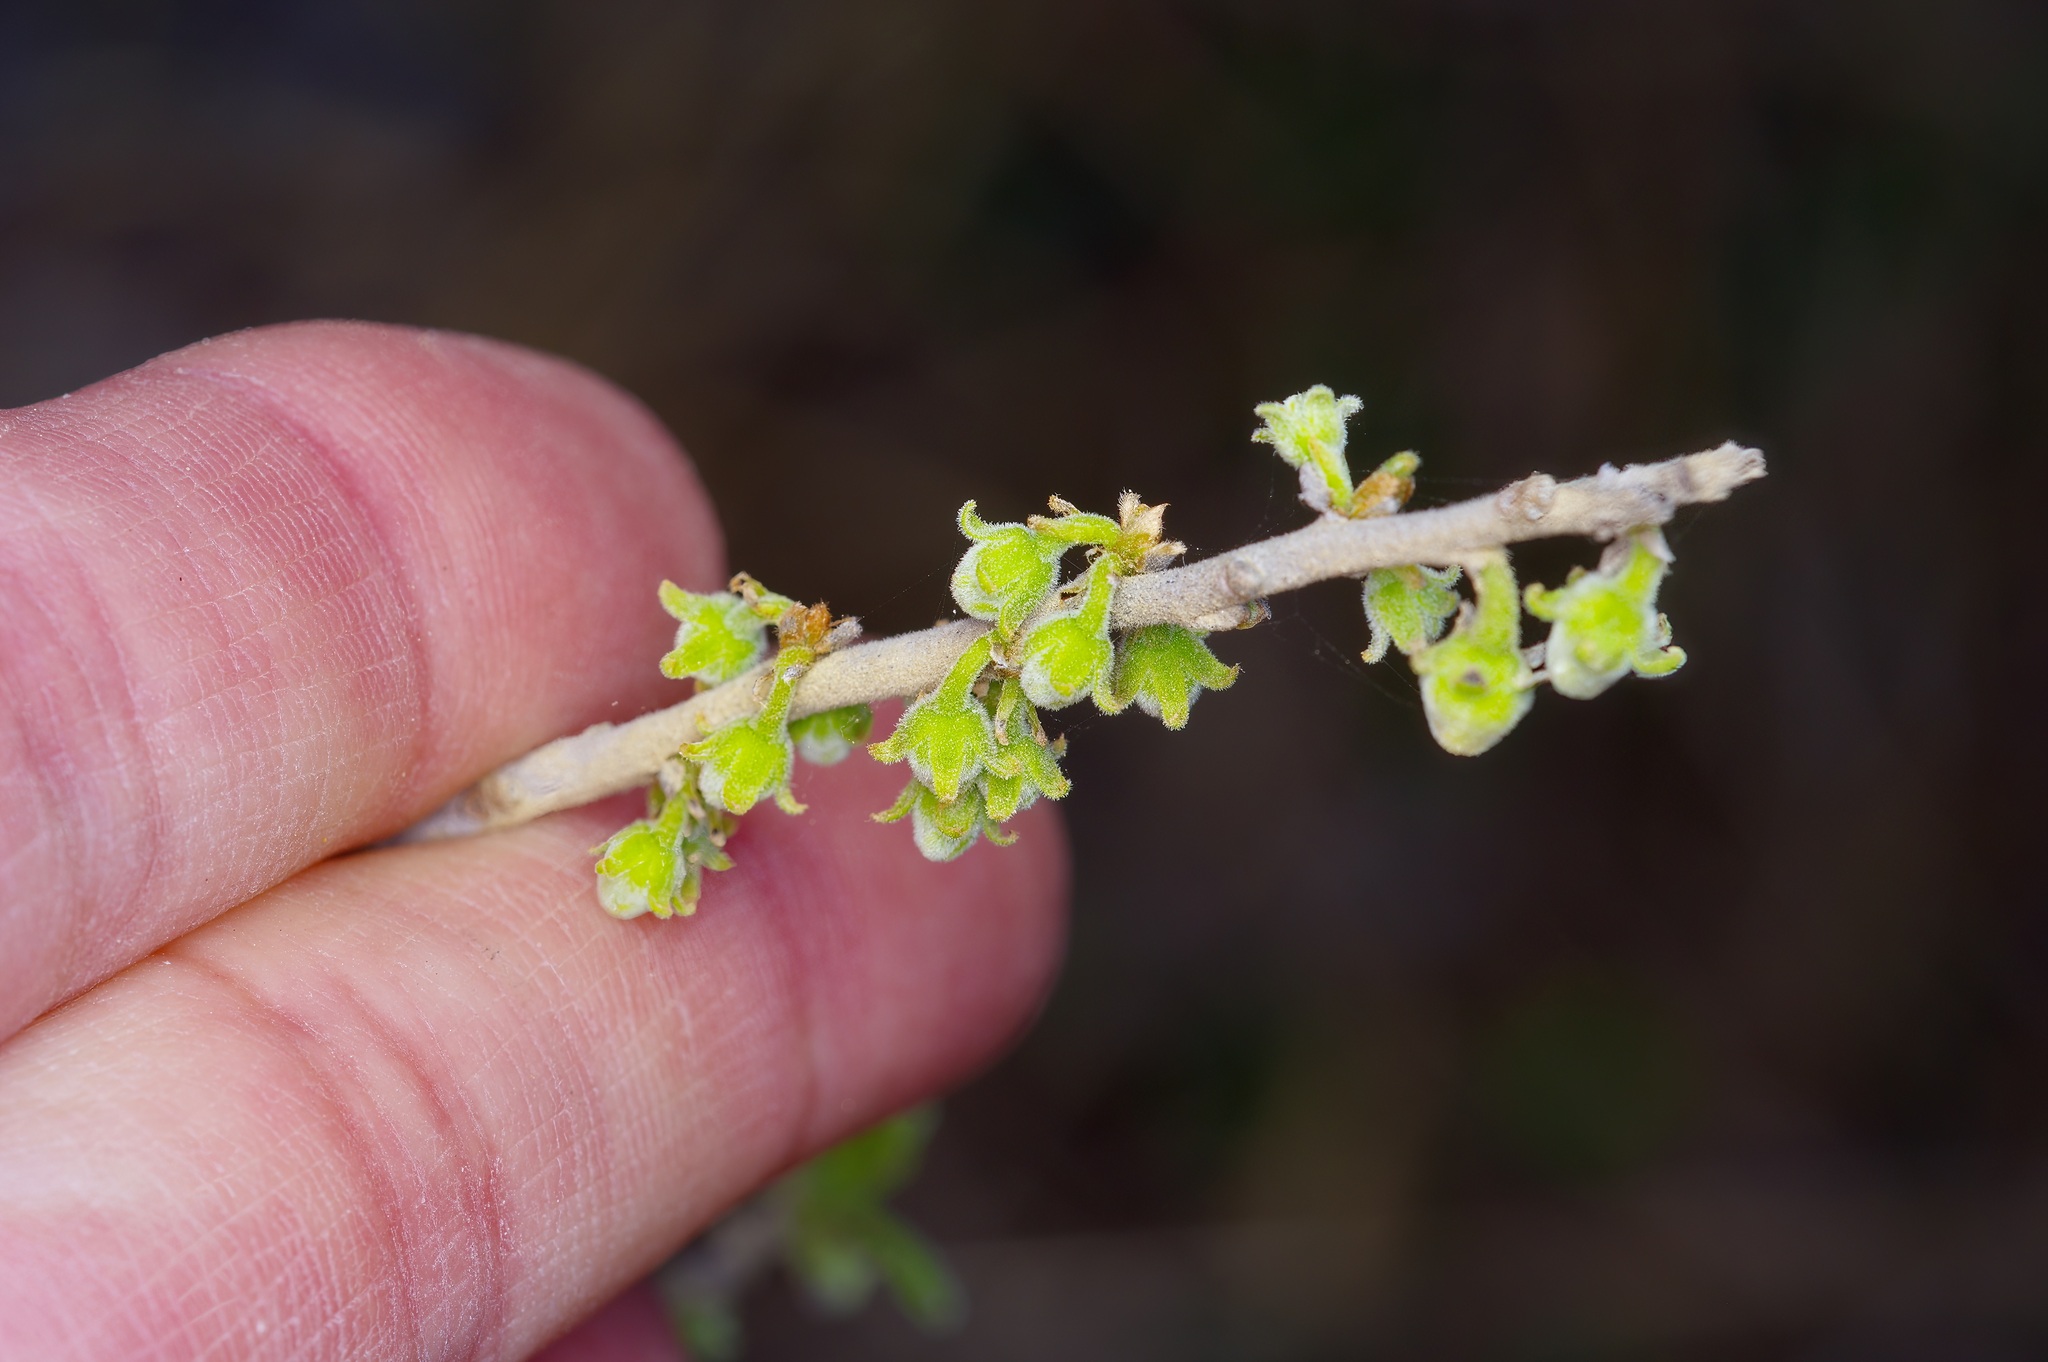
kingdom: Plantae
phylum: Tracheophyta
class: Magnoliopsida
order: Ericales
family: Ebenaceae
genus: Diospyros
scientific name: Diospyros texana
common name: Texas persimmon
